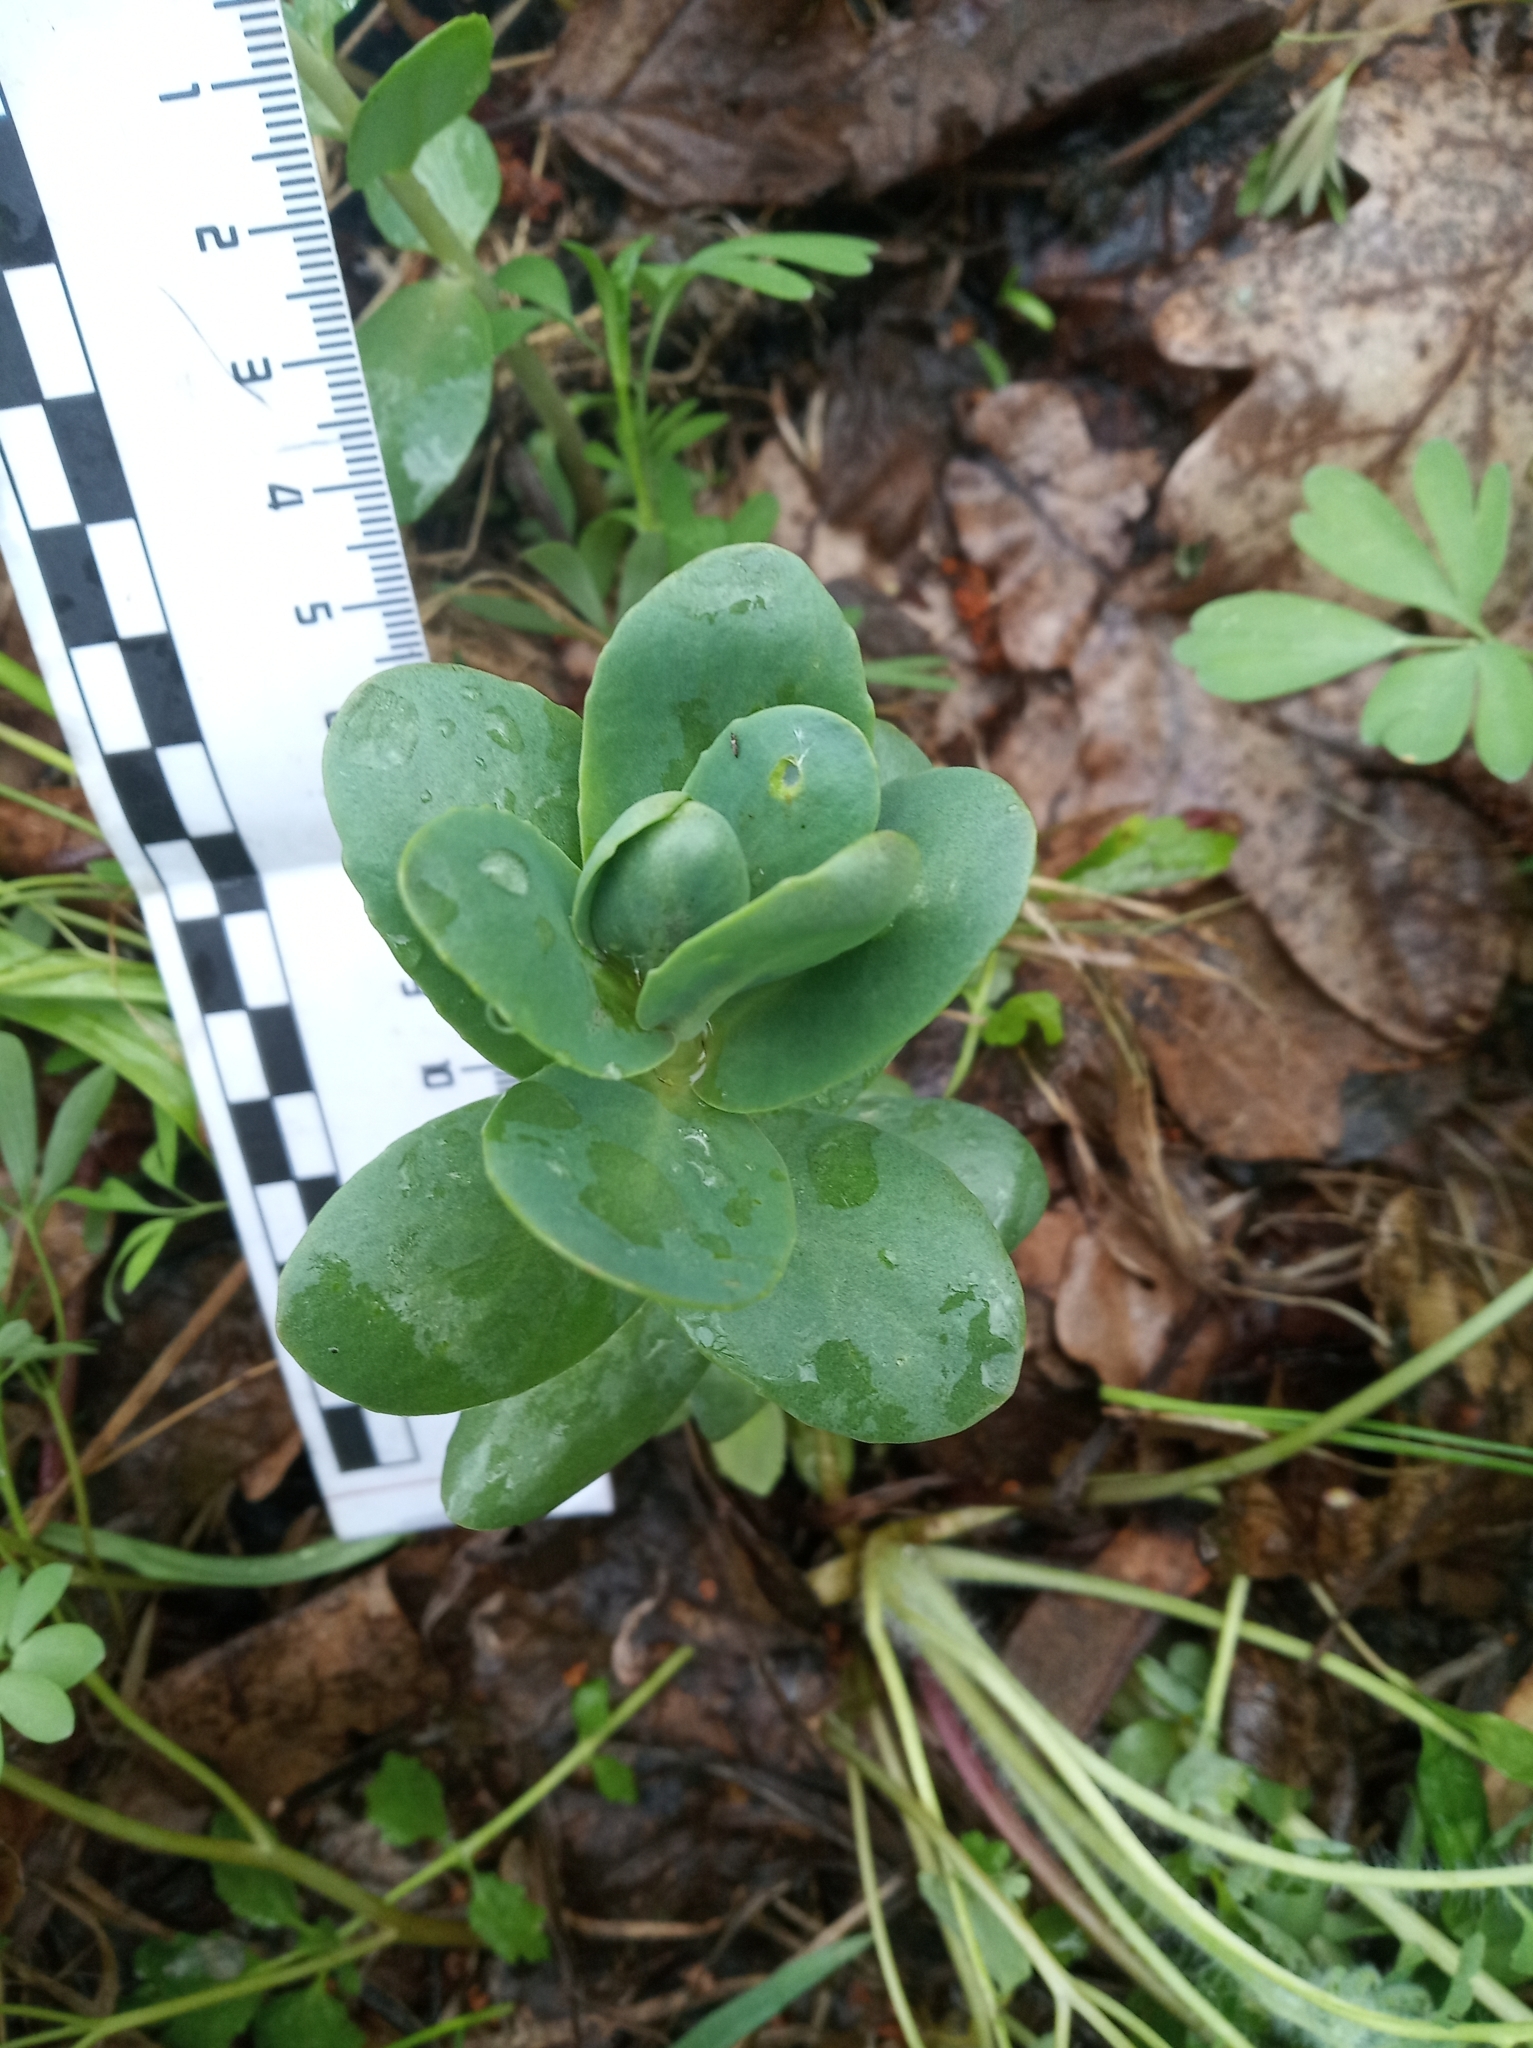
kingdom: Plantae
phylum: Tracheophyta
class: Magnoliopsida
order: Saxifragales
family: Crassulaceae
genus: Hylotelephium
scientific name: Hylotelephium maximum
